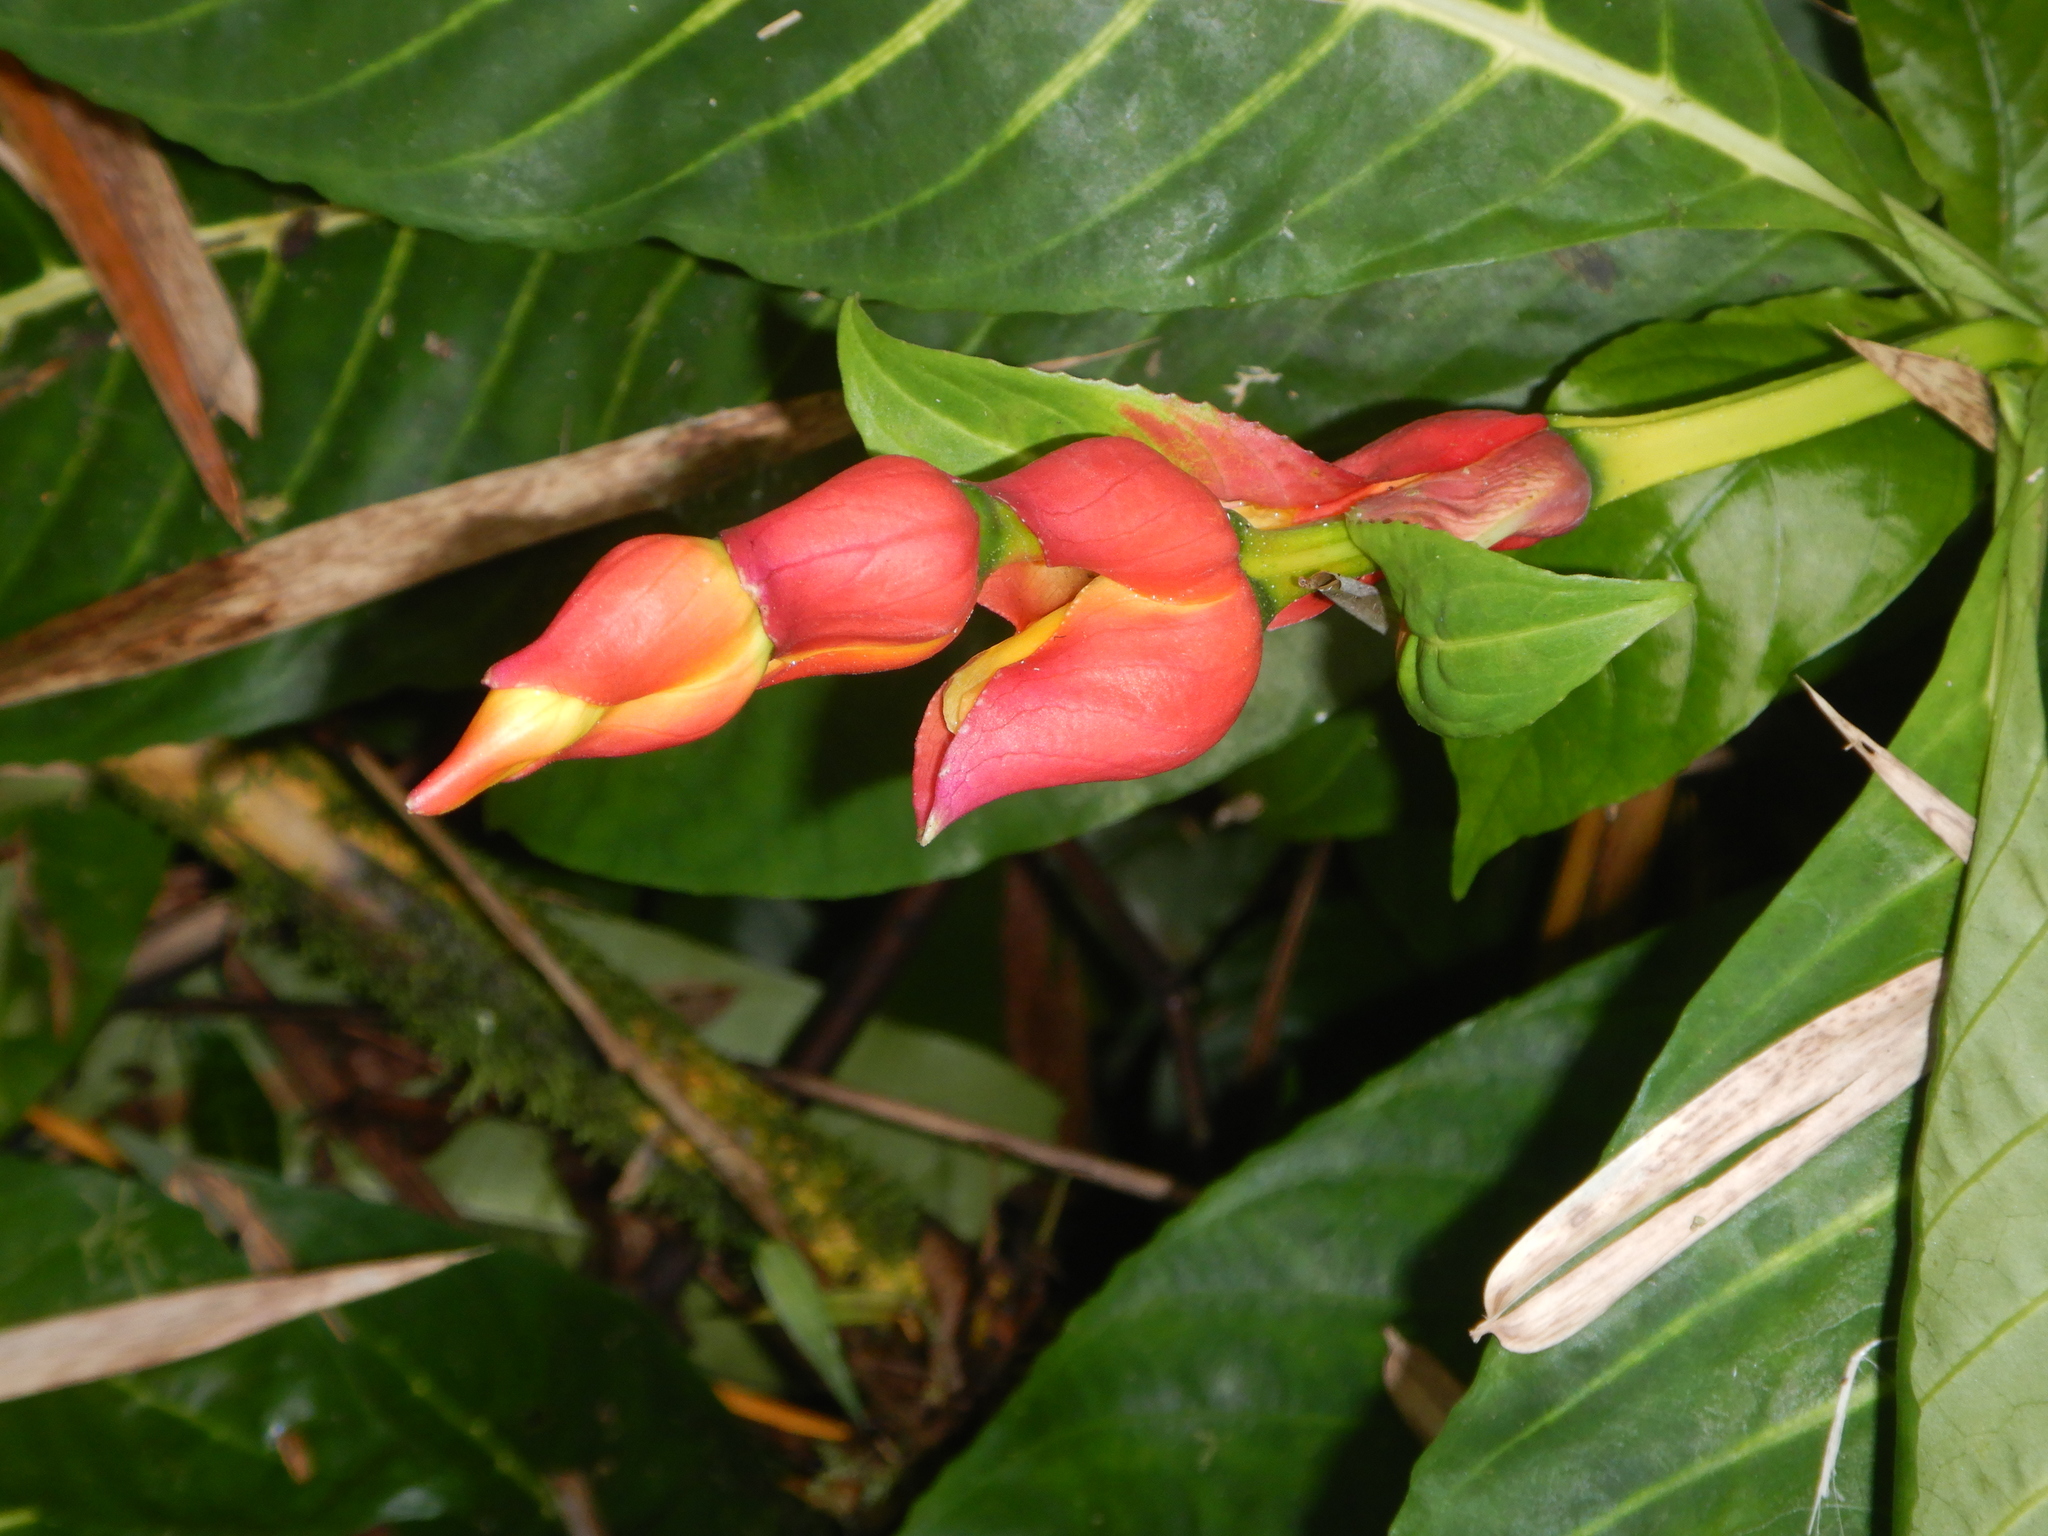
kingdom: Plantae
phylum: Tracheophyta
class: Magnoliopsida
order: Lamiales
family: Acanthaceae
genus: Sanchezia
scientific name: Sanchezia oblonga
